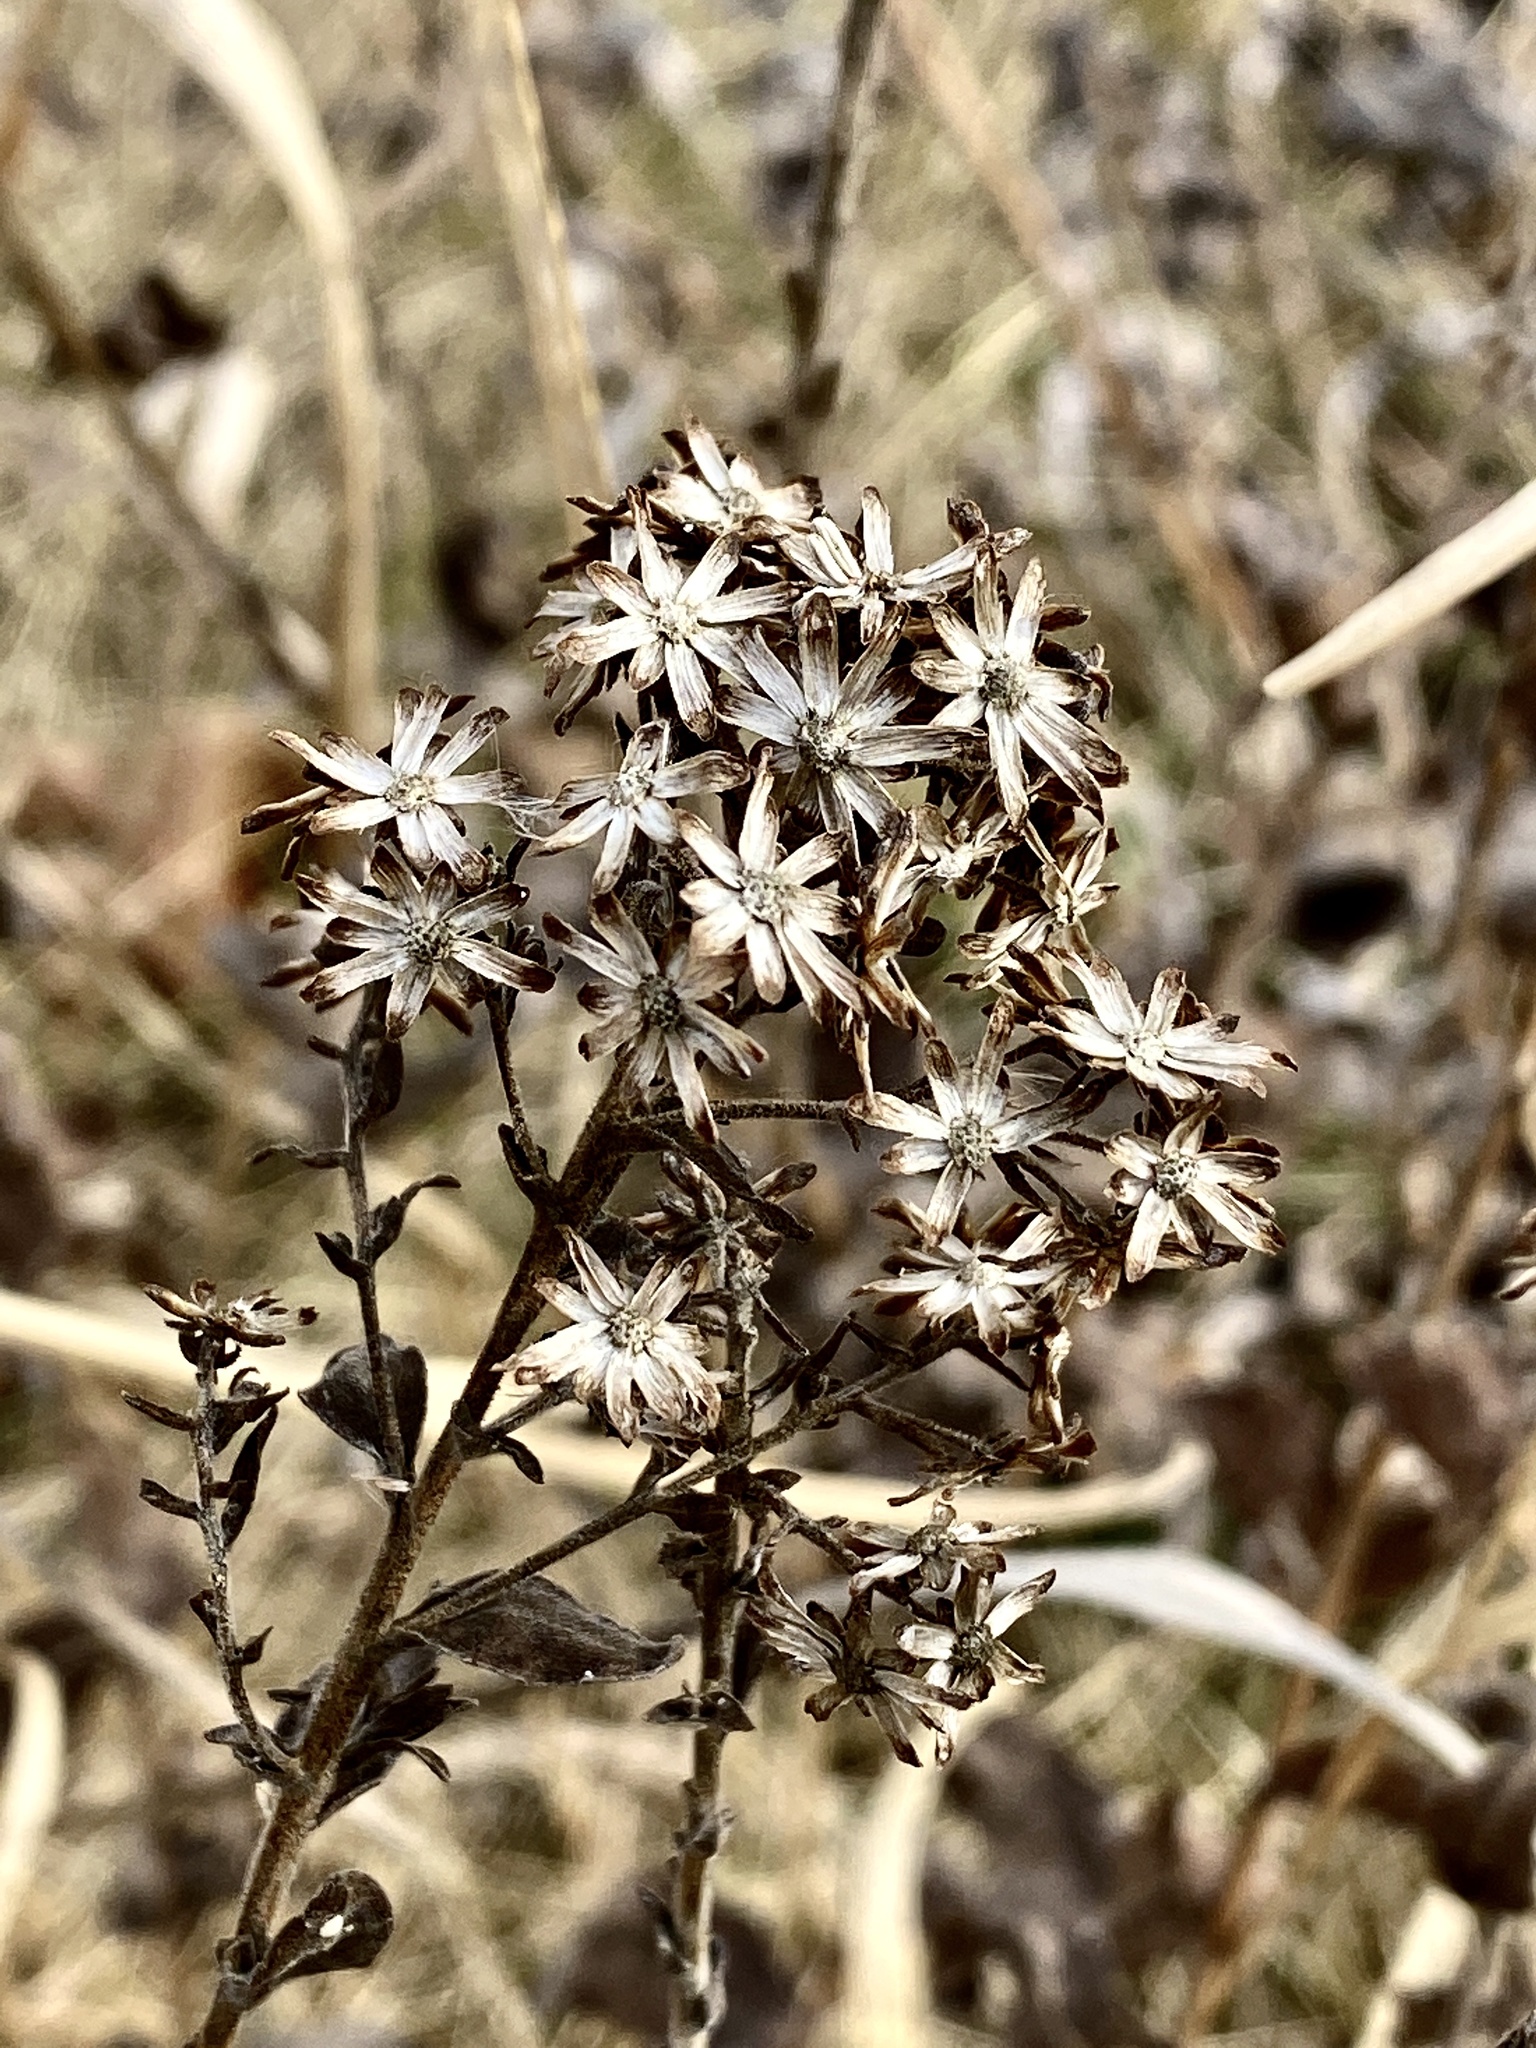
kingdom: Plantae
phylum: Tracheophyta
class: Magnoliopsida
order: Asterales
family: Asteraceae
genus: Solidago
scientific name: Solidago rigida
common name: Rigid goldenrod
